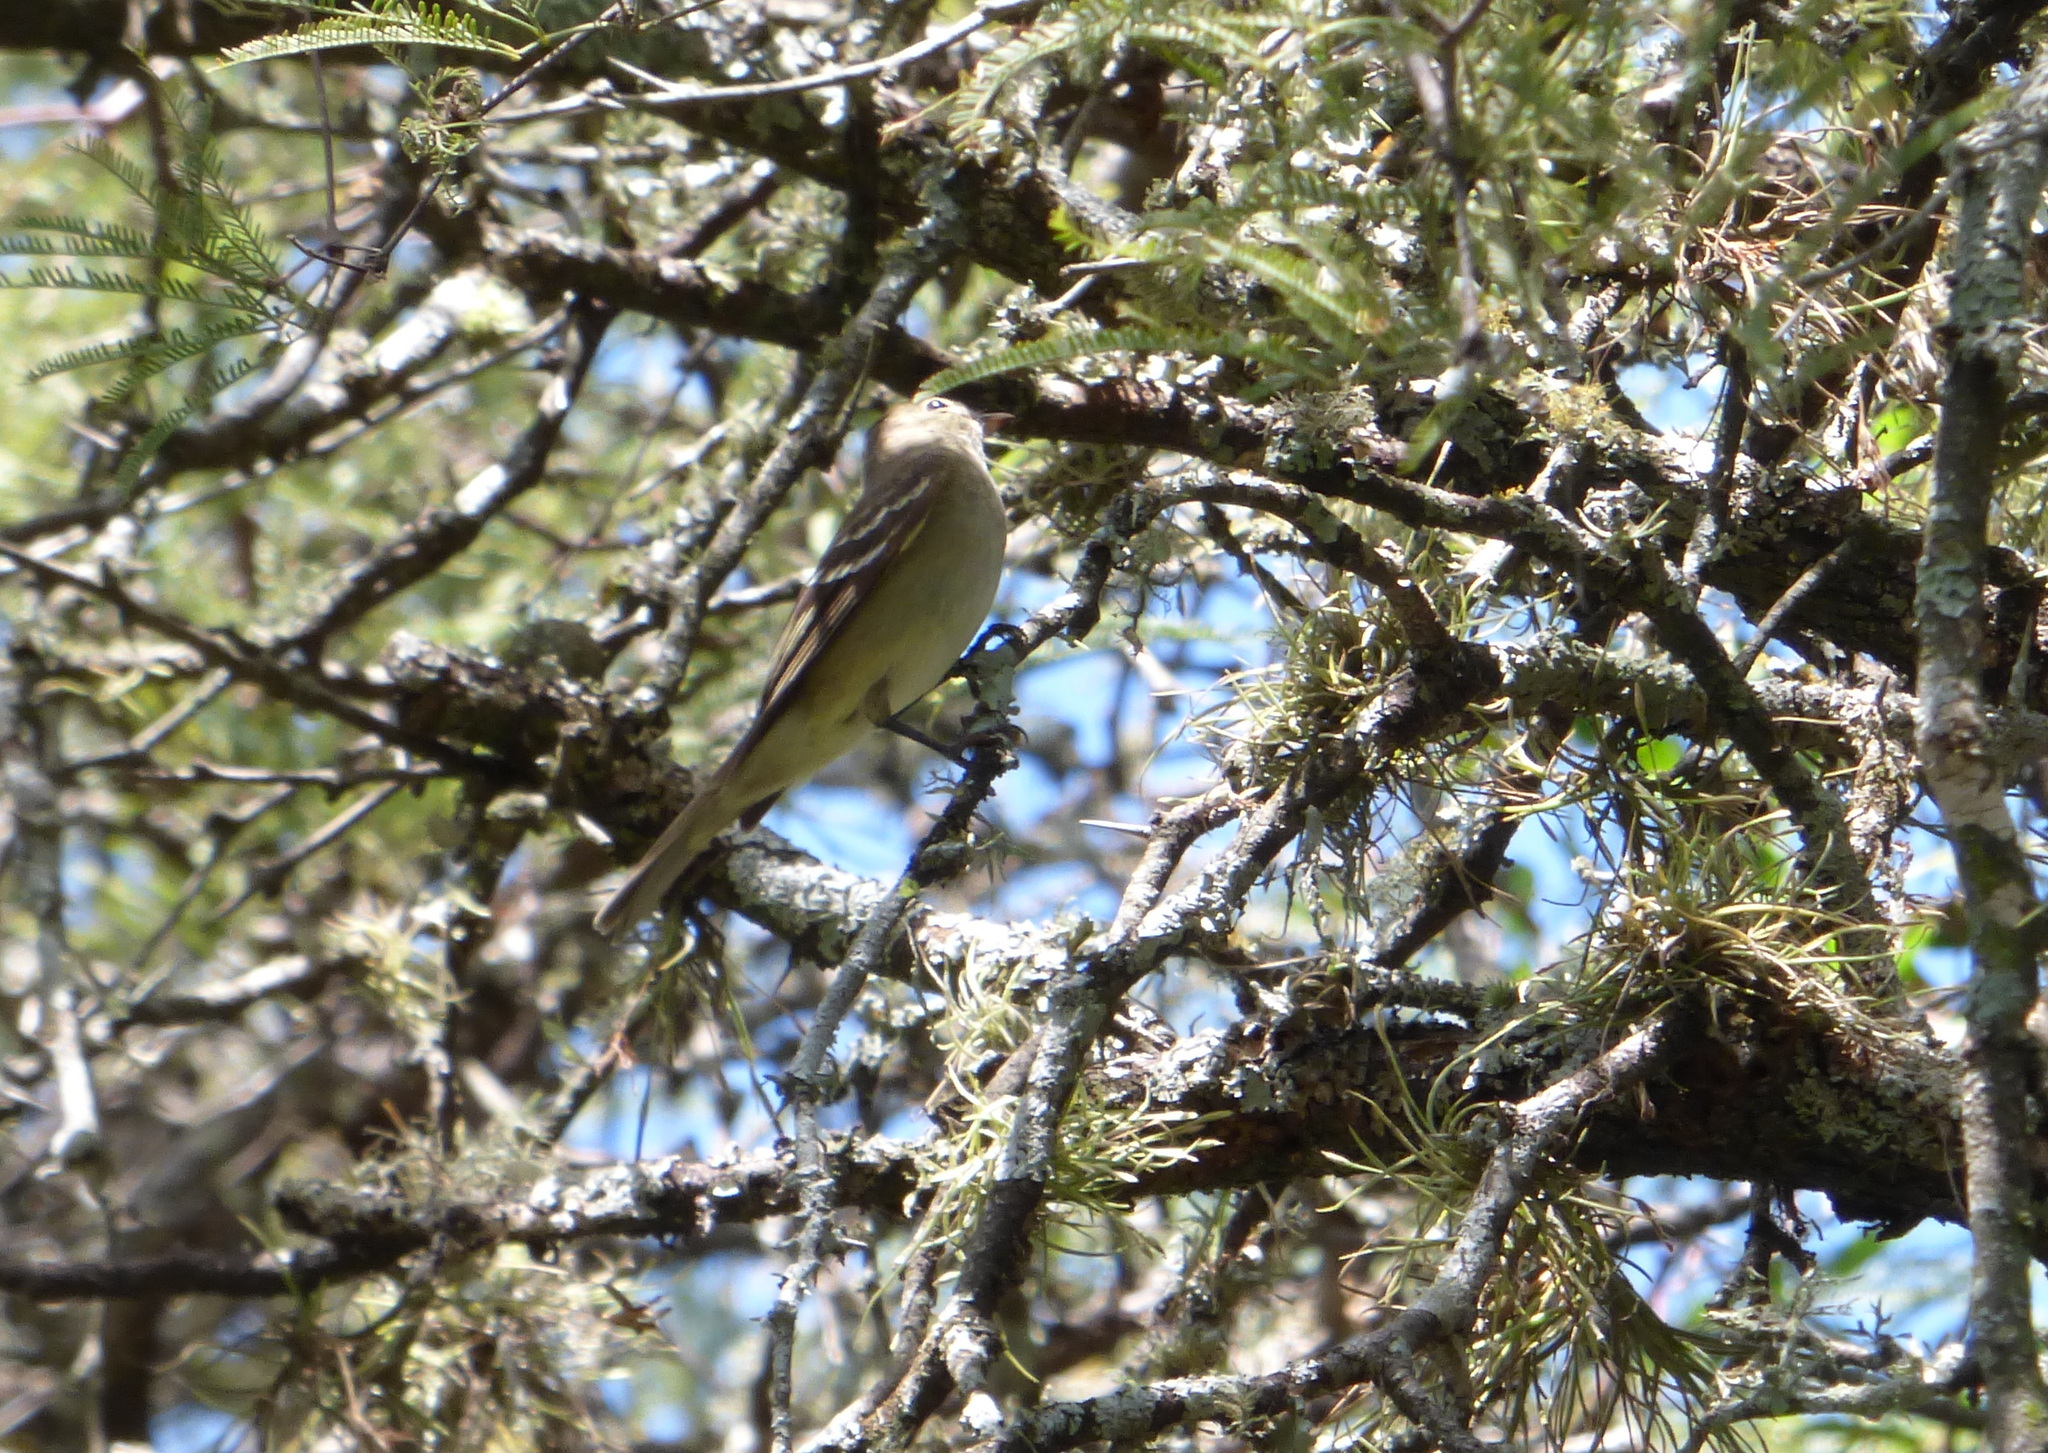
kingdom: Animalia
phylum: Chordata
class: Aves
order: Passeriformes
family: Tyrannidae
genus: Elaenia
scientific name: Elaenia parvirostris
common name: Small-billed elaenia
